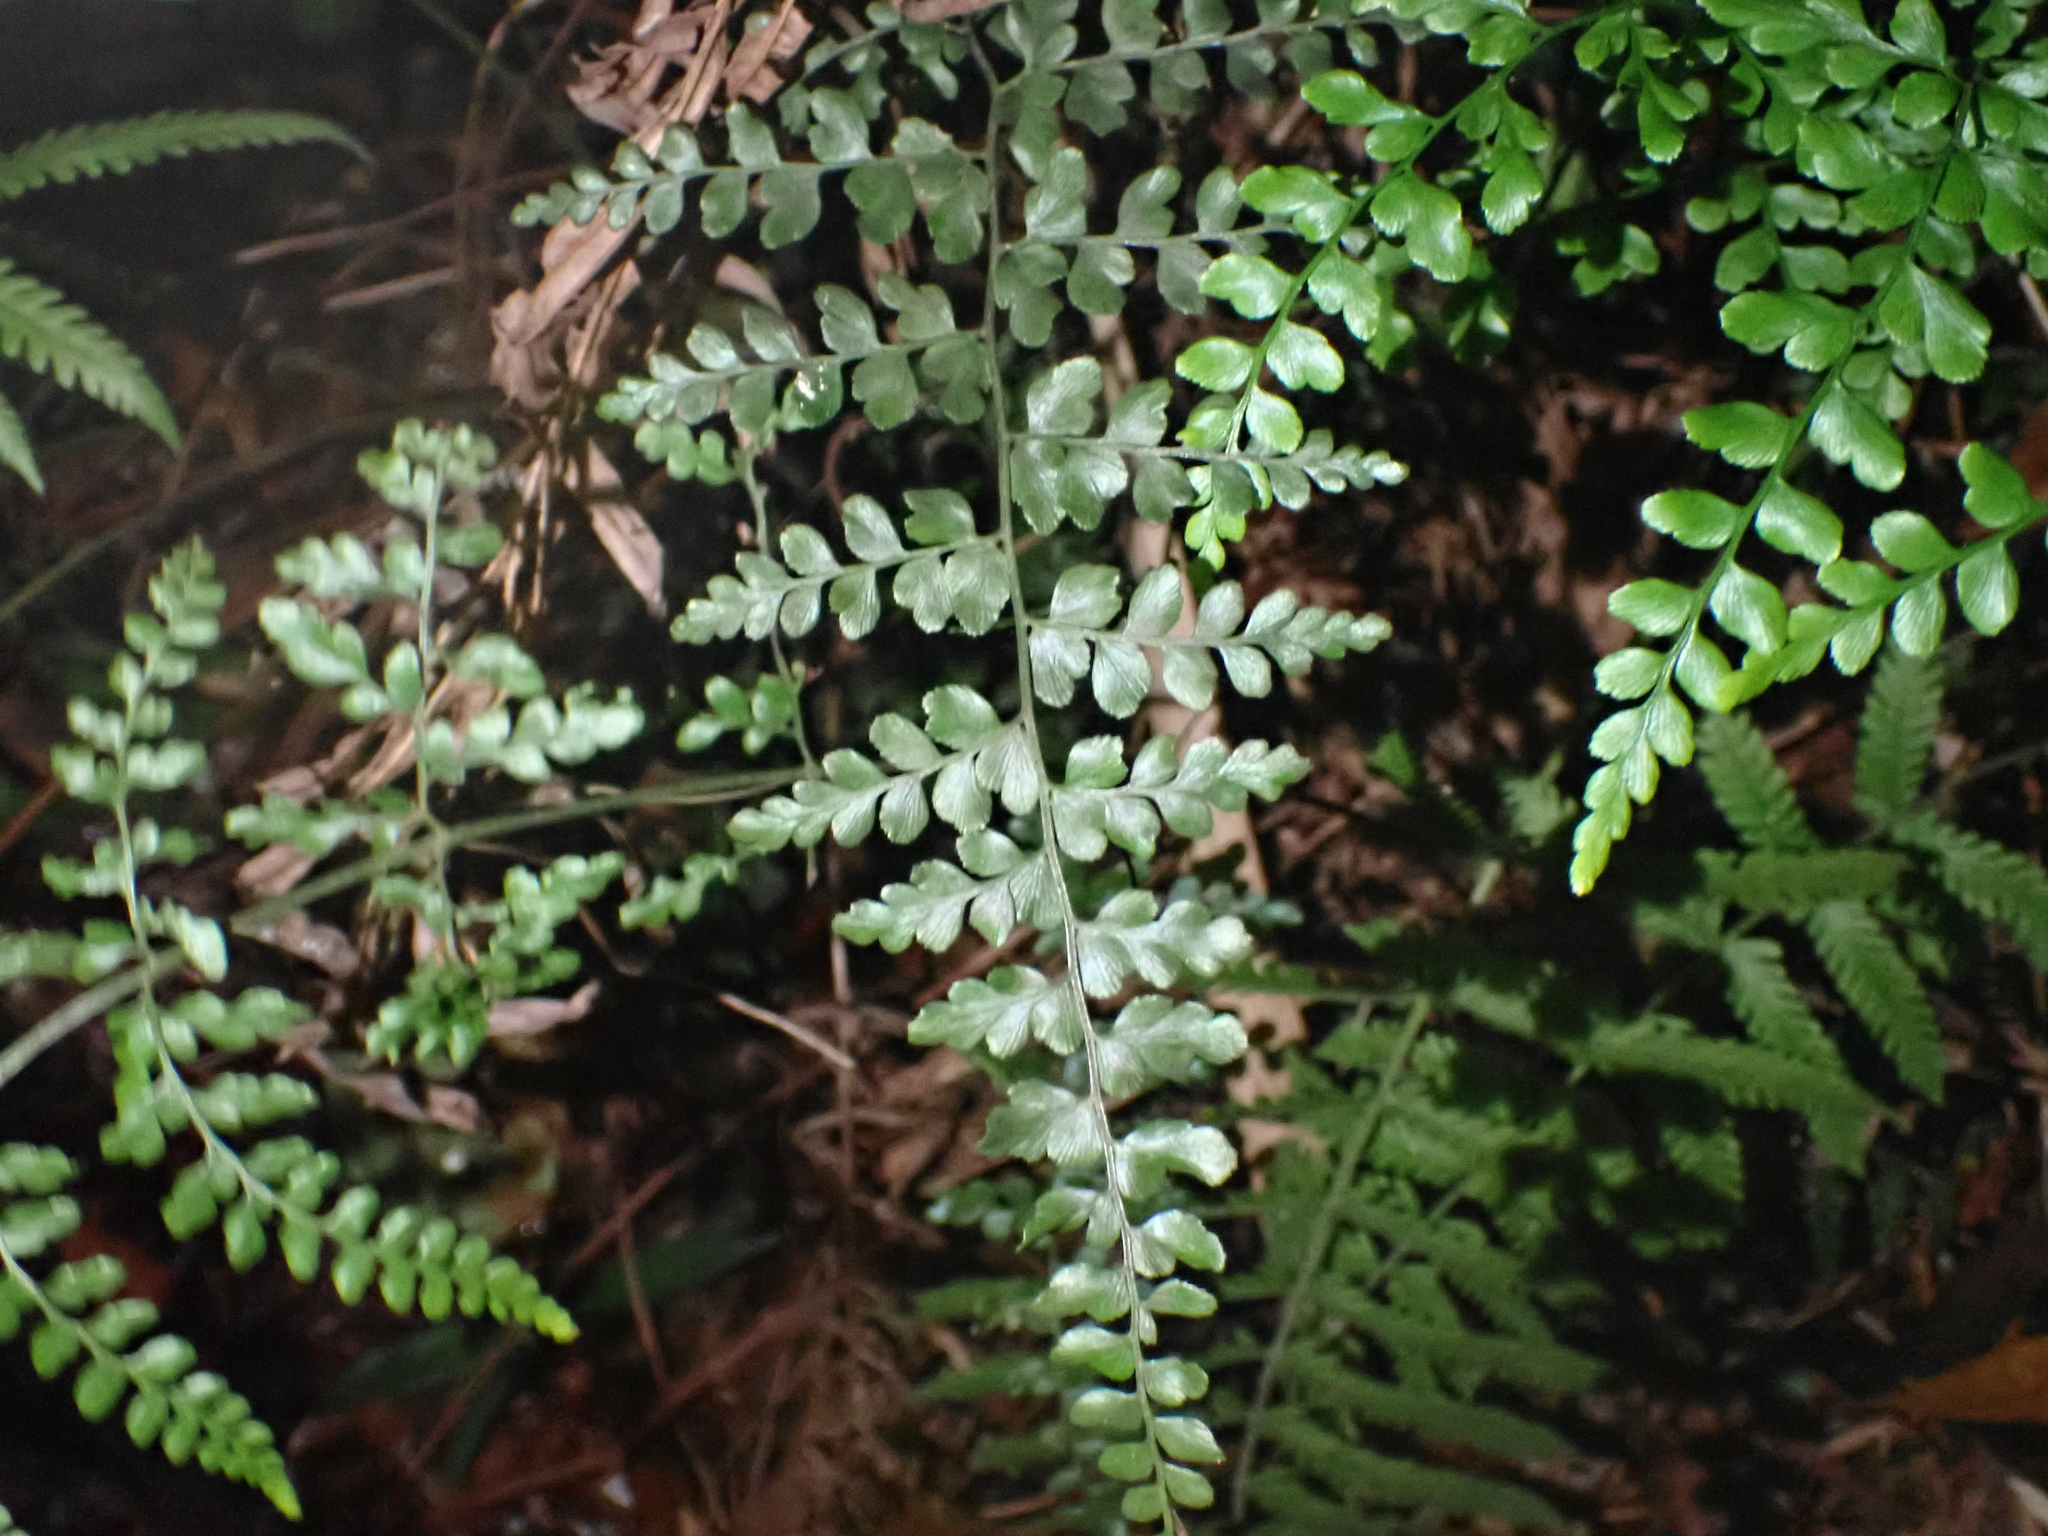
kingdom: Plantae
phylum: Tracheophyta
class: Polypodiopsida
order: Schizaeales
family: Anemiaceae
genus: Anemia
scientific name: Anemia adiantifolia
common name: Pine fern
